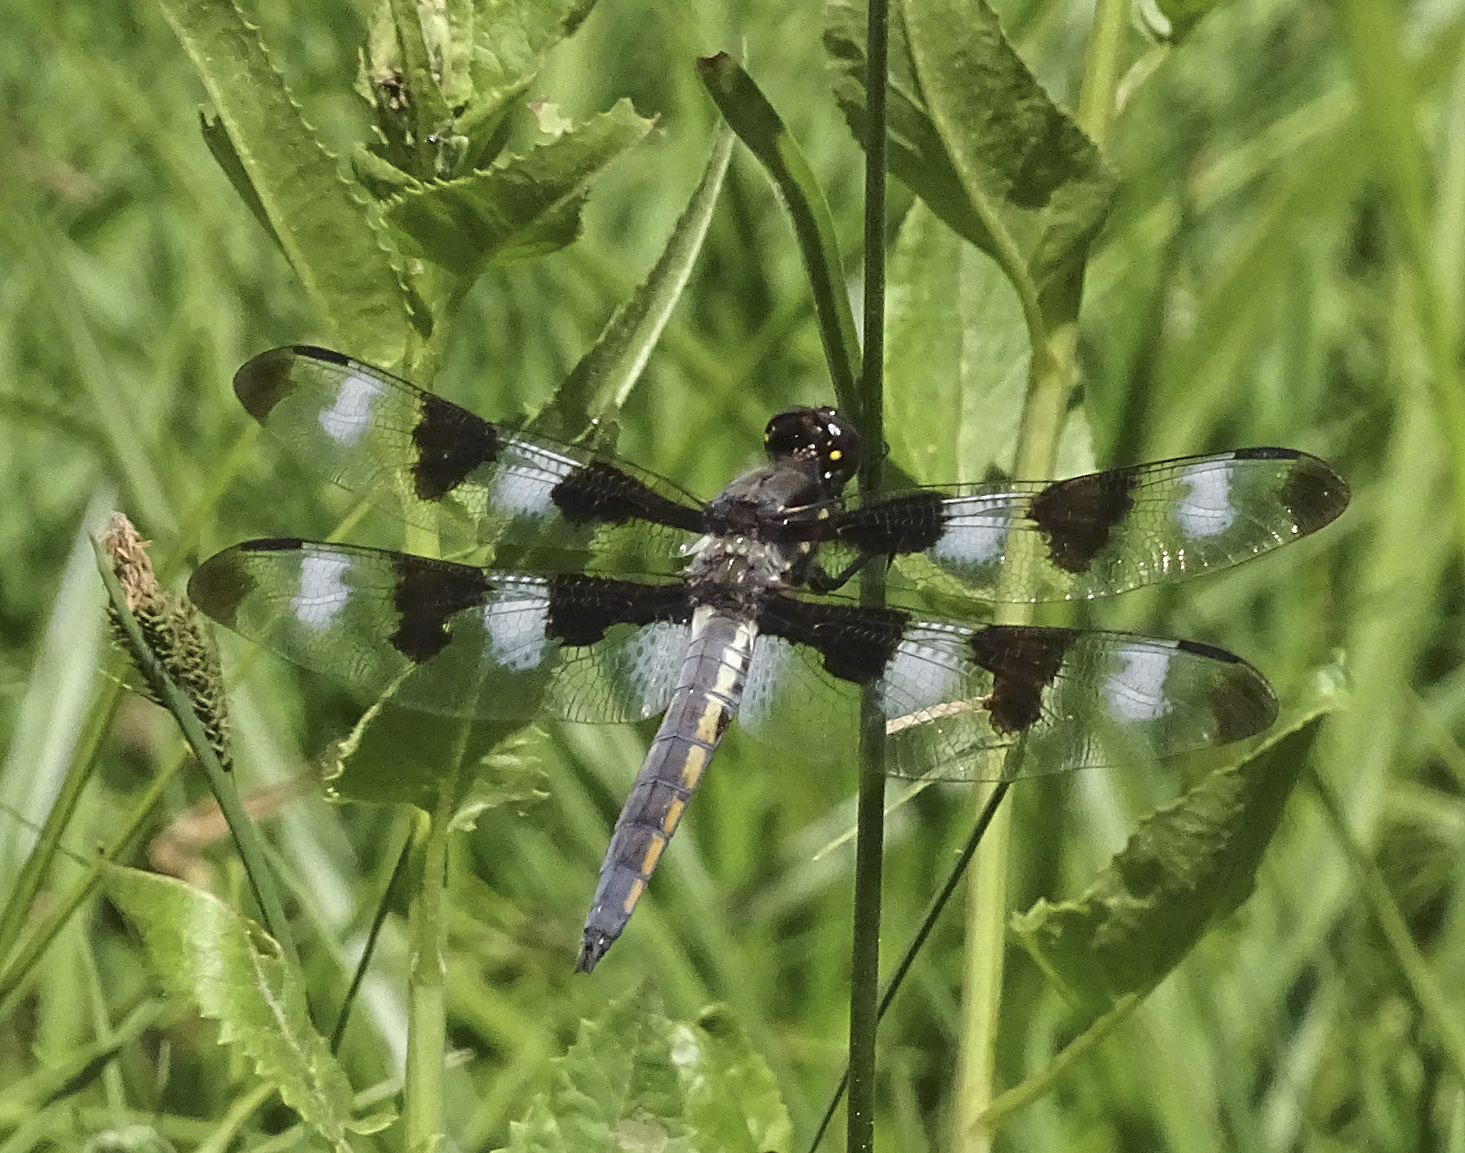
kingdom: Animalia
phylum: Arthropoda
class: Insecta
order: Odonata
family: Libellulidae
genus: Libellula
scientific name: Libellula pulchella
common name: Twelve-spotted skimmer
